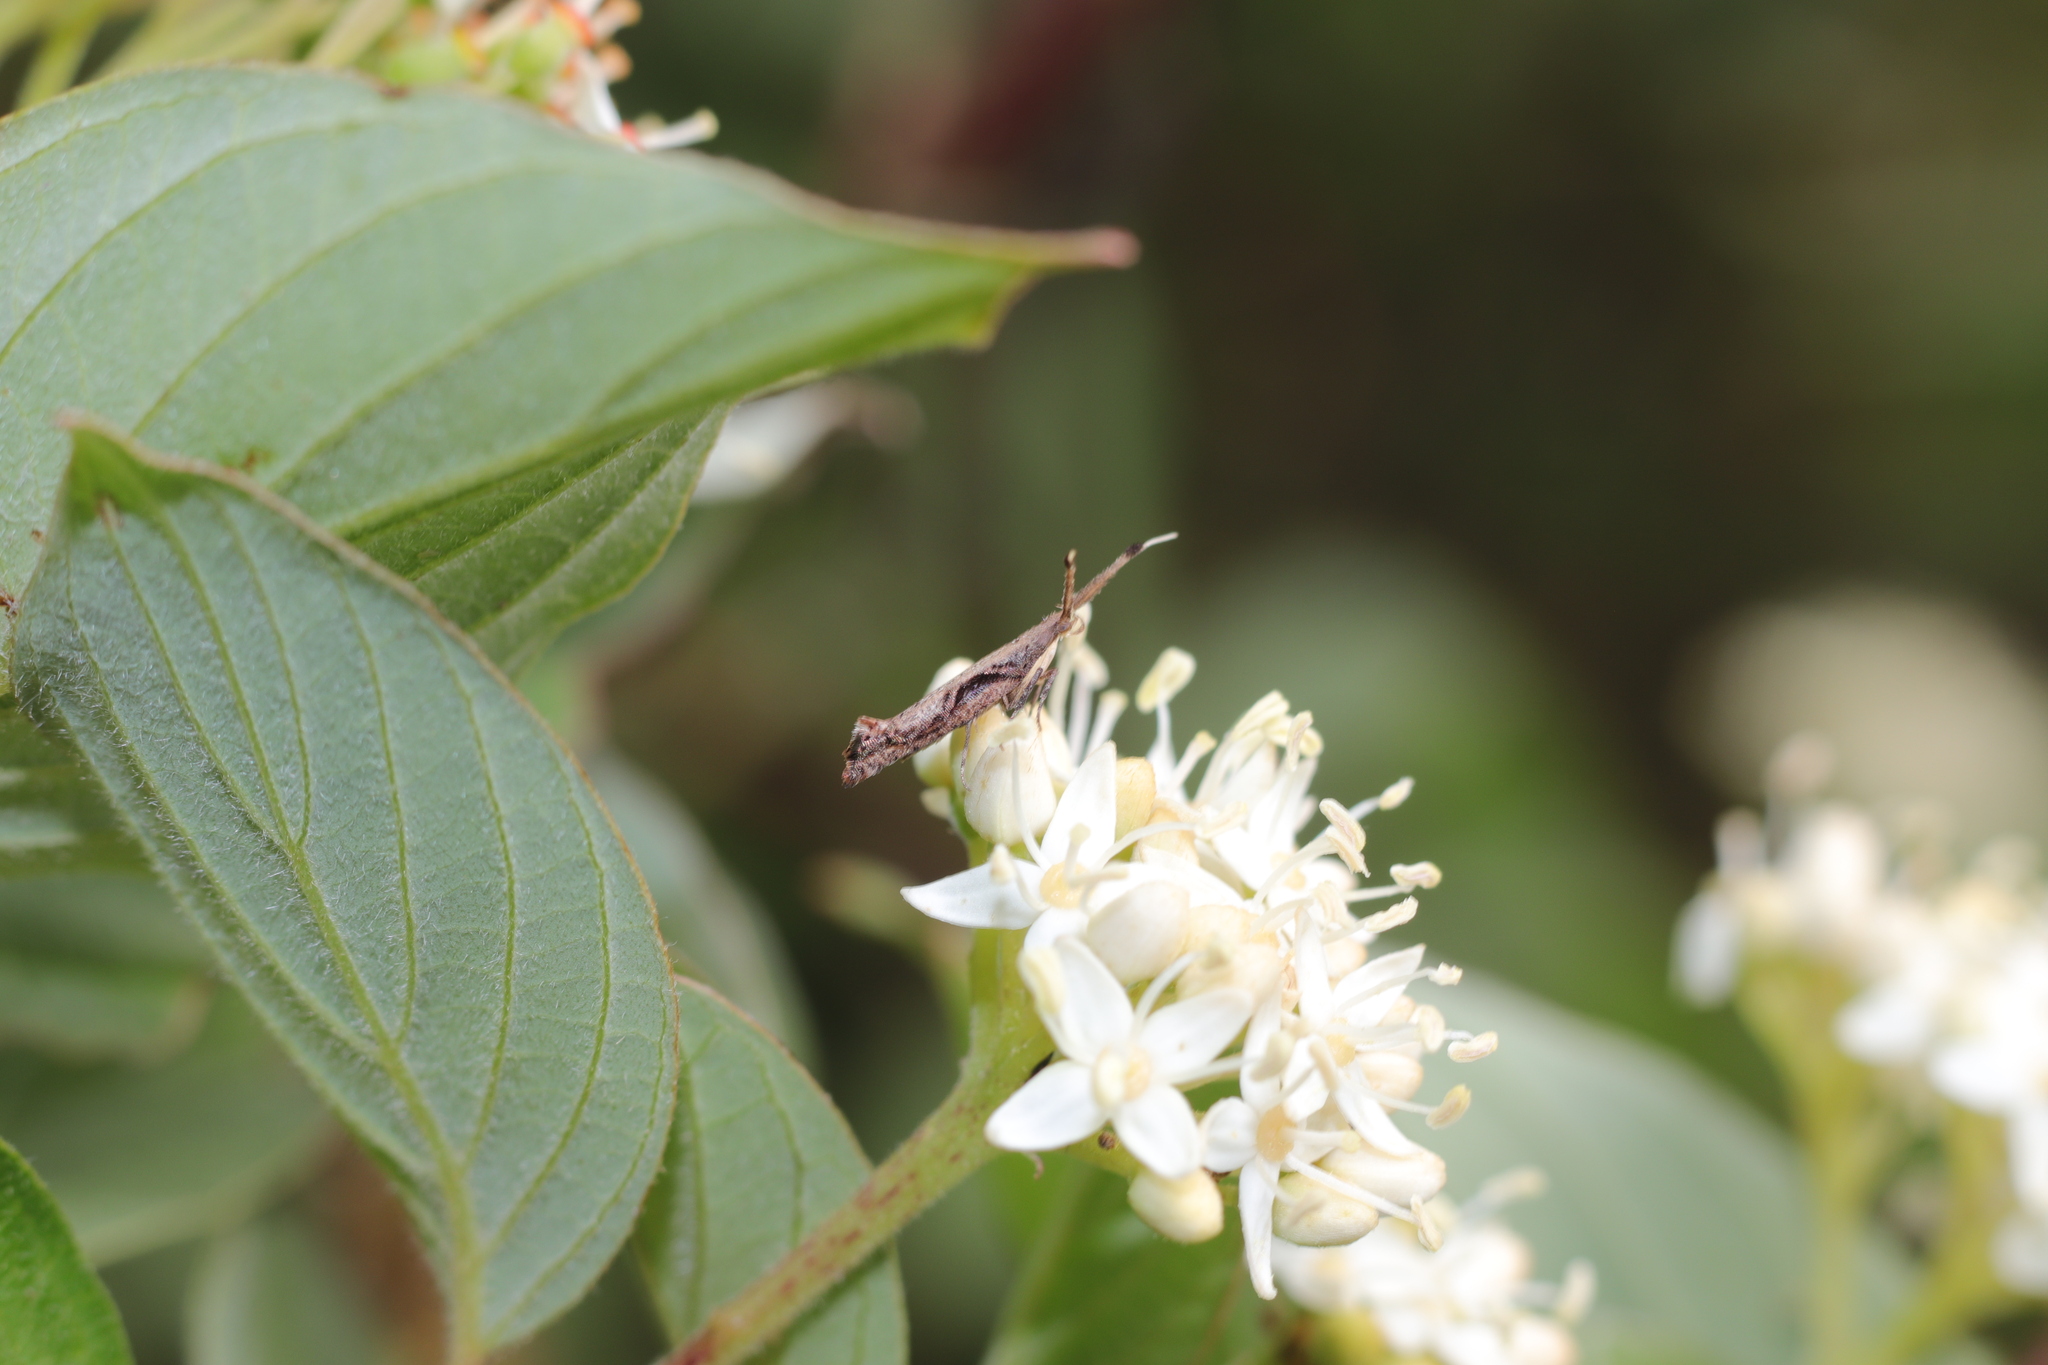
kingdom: Animalia
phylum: Arthropoda
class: Insecta
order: Lepidoptera
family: Plutellidae
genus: Protosynaema
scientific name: Protosynaema steropucha
